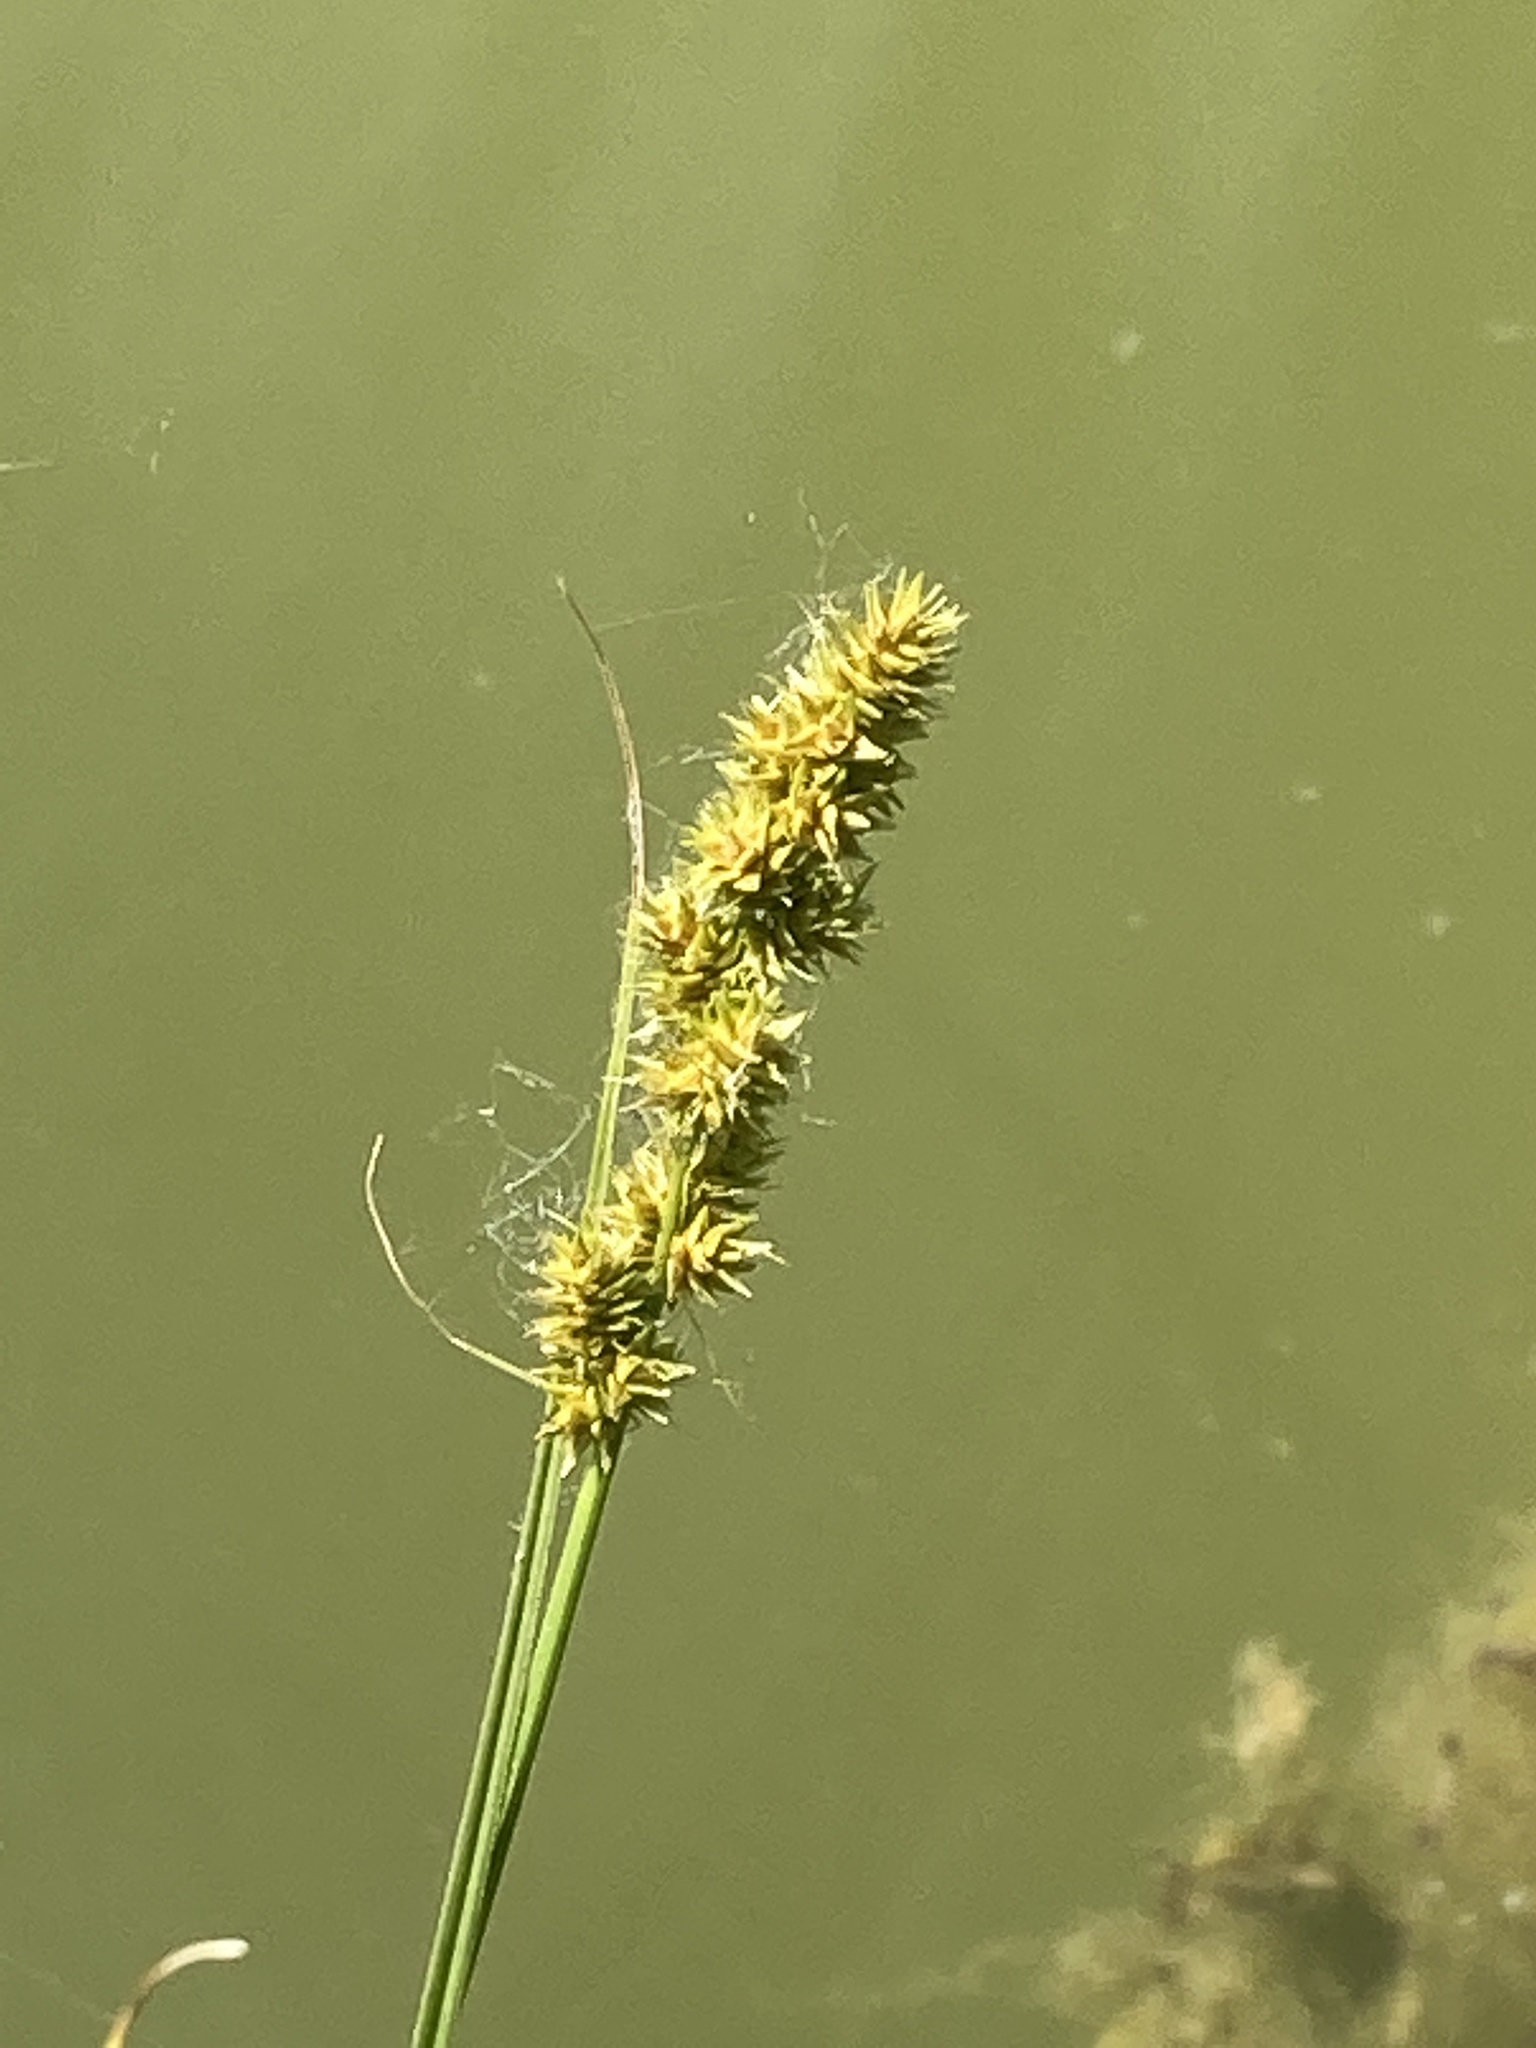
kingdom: Plantae
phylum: Tracheophyta
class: Liliopsida
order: Poales
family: Cyperaceae
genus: Carex
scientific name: Carex vulpinoidea
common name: American fox-sedge
